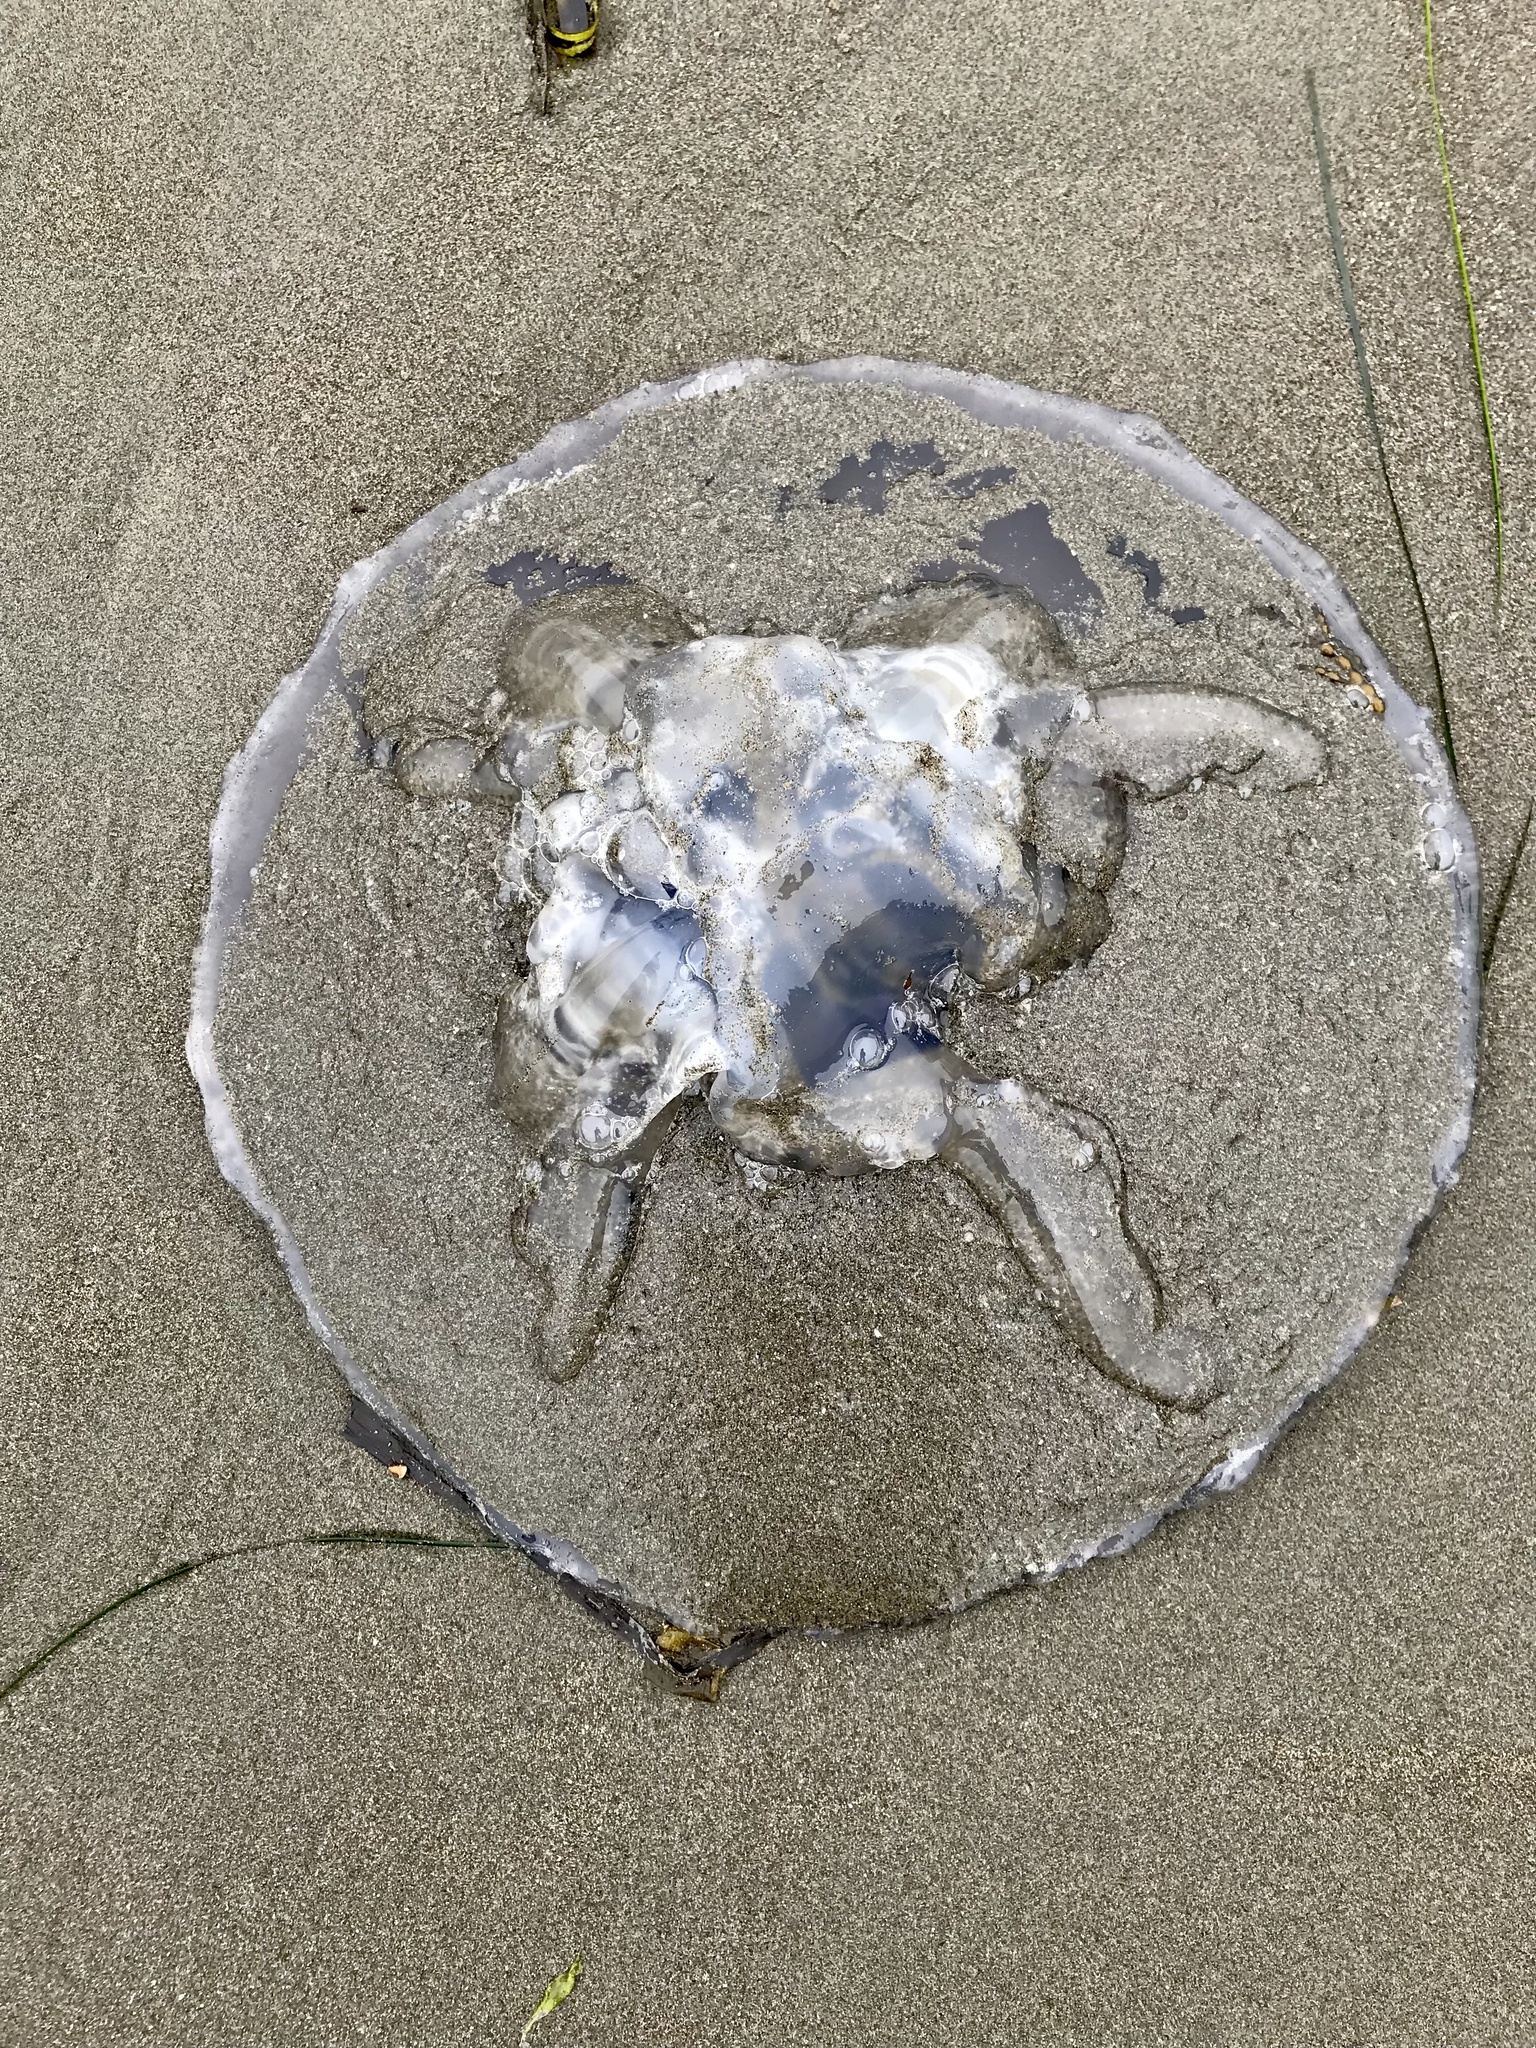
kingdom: Animalia
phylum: Cnidaria
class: Scyphozoa
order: Semaeostomeae
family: Ulmaridae
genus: Aurelia
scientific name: Aurelia labiata
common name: Pacific moon jelly
